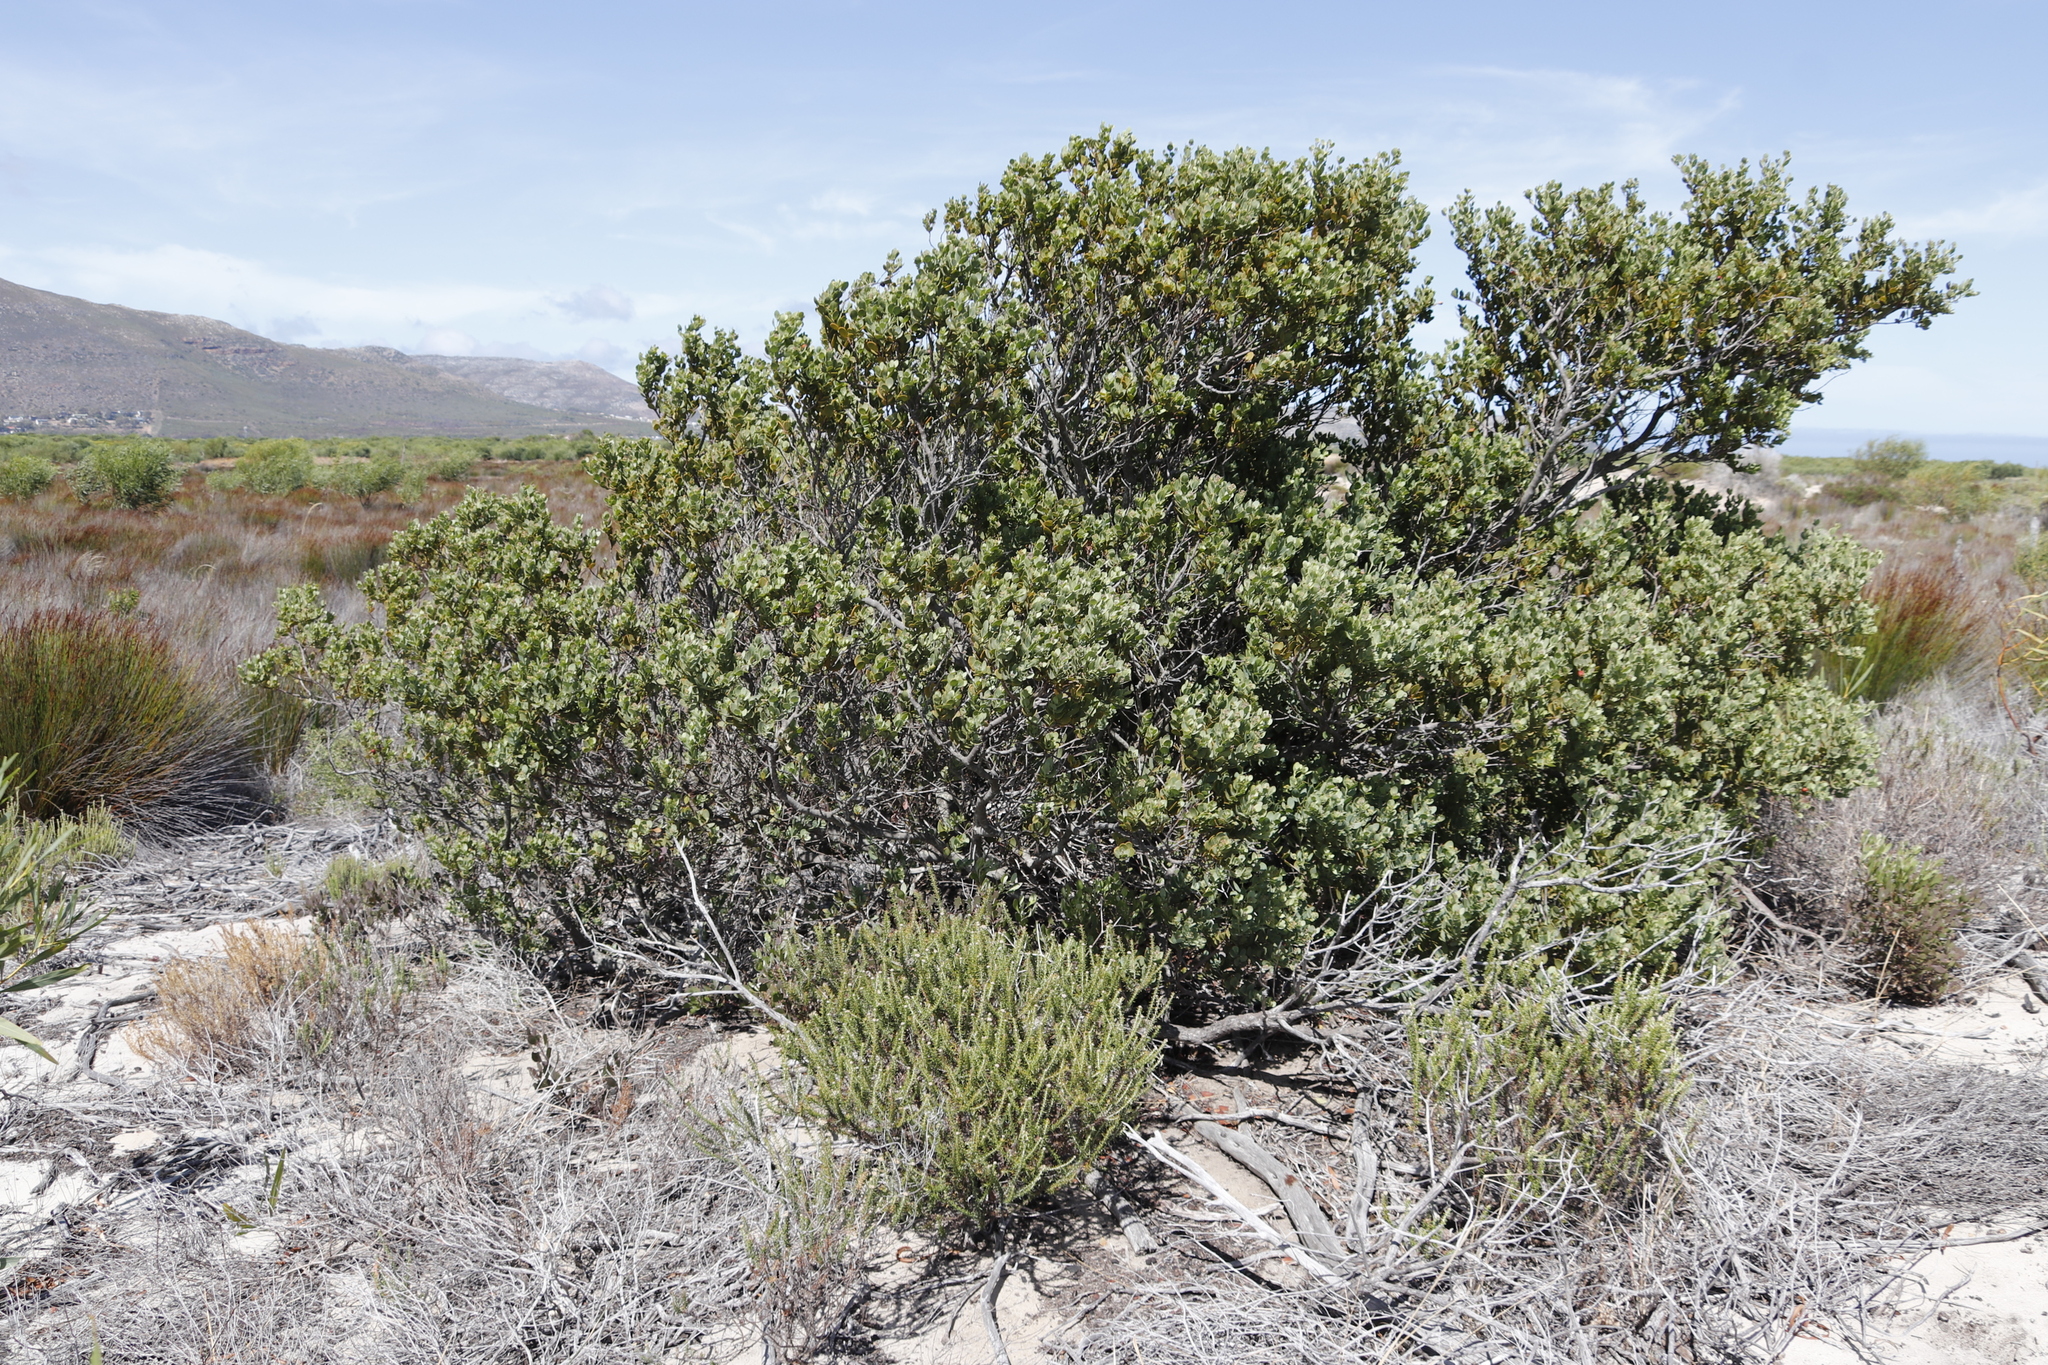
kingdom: Plantae
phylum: Tracheophyta
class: Magnoliopsida
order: Santalales
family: Santalaceae
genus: Osyris
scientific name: Osyris compressa
